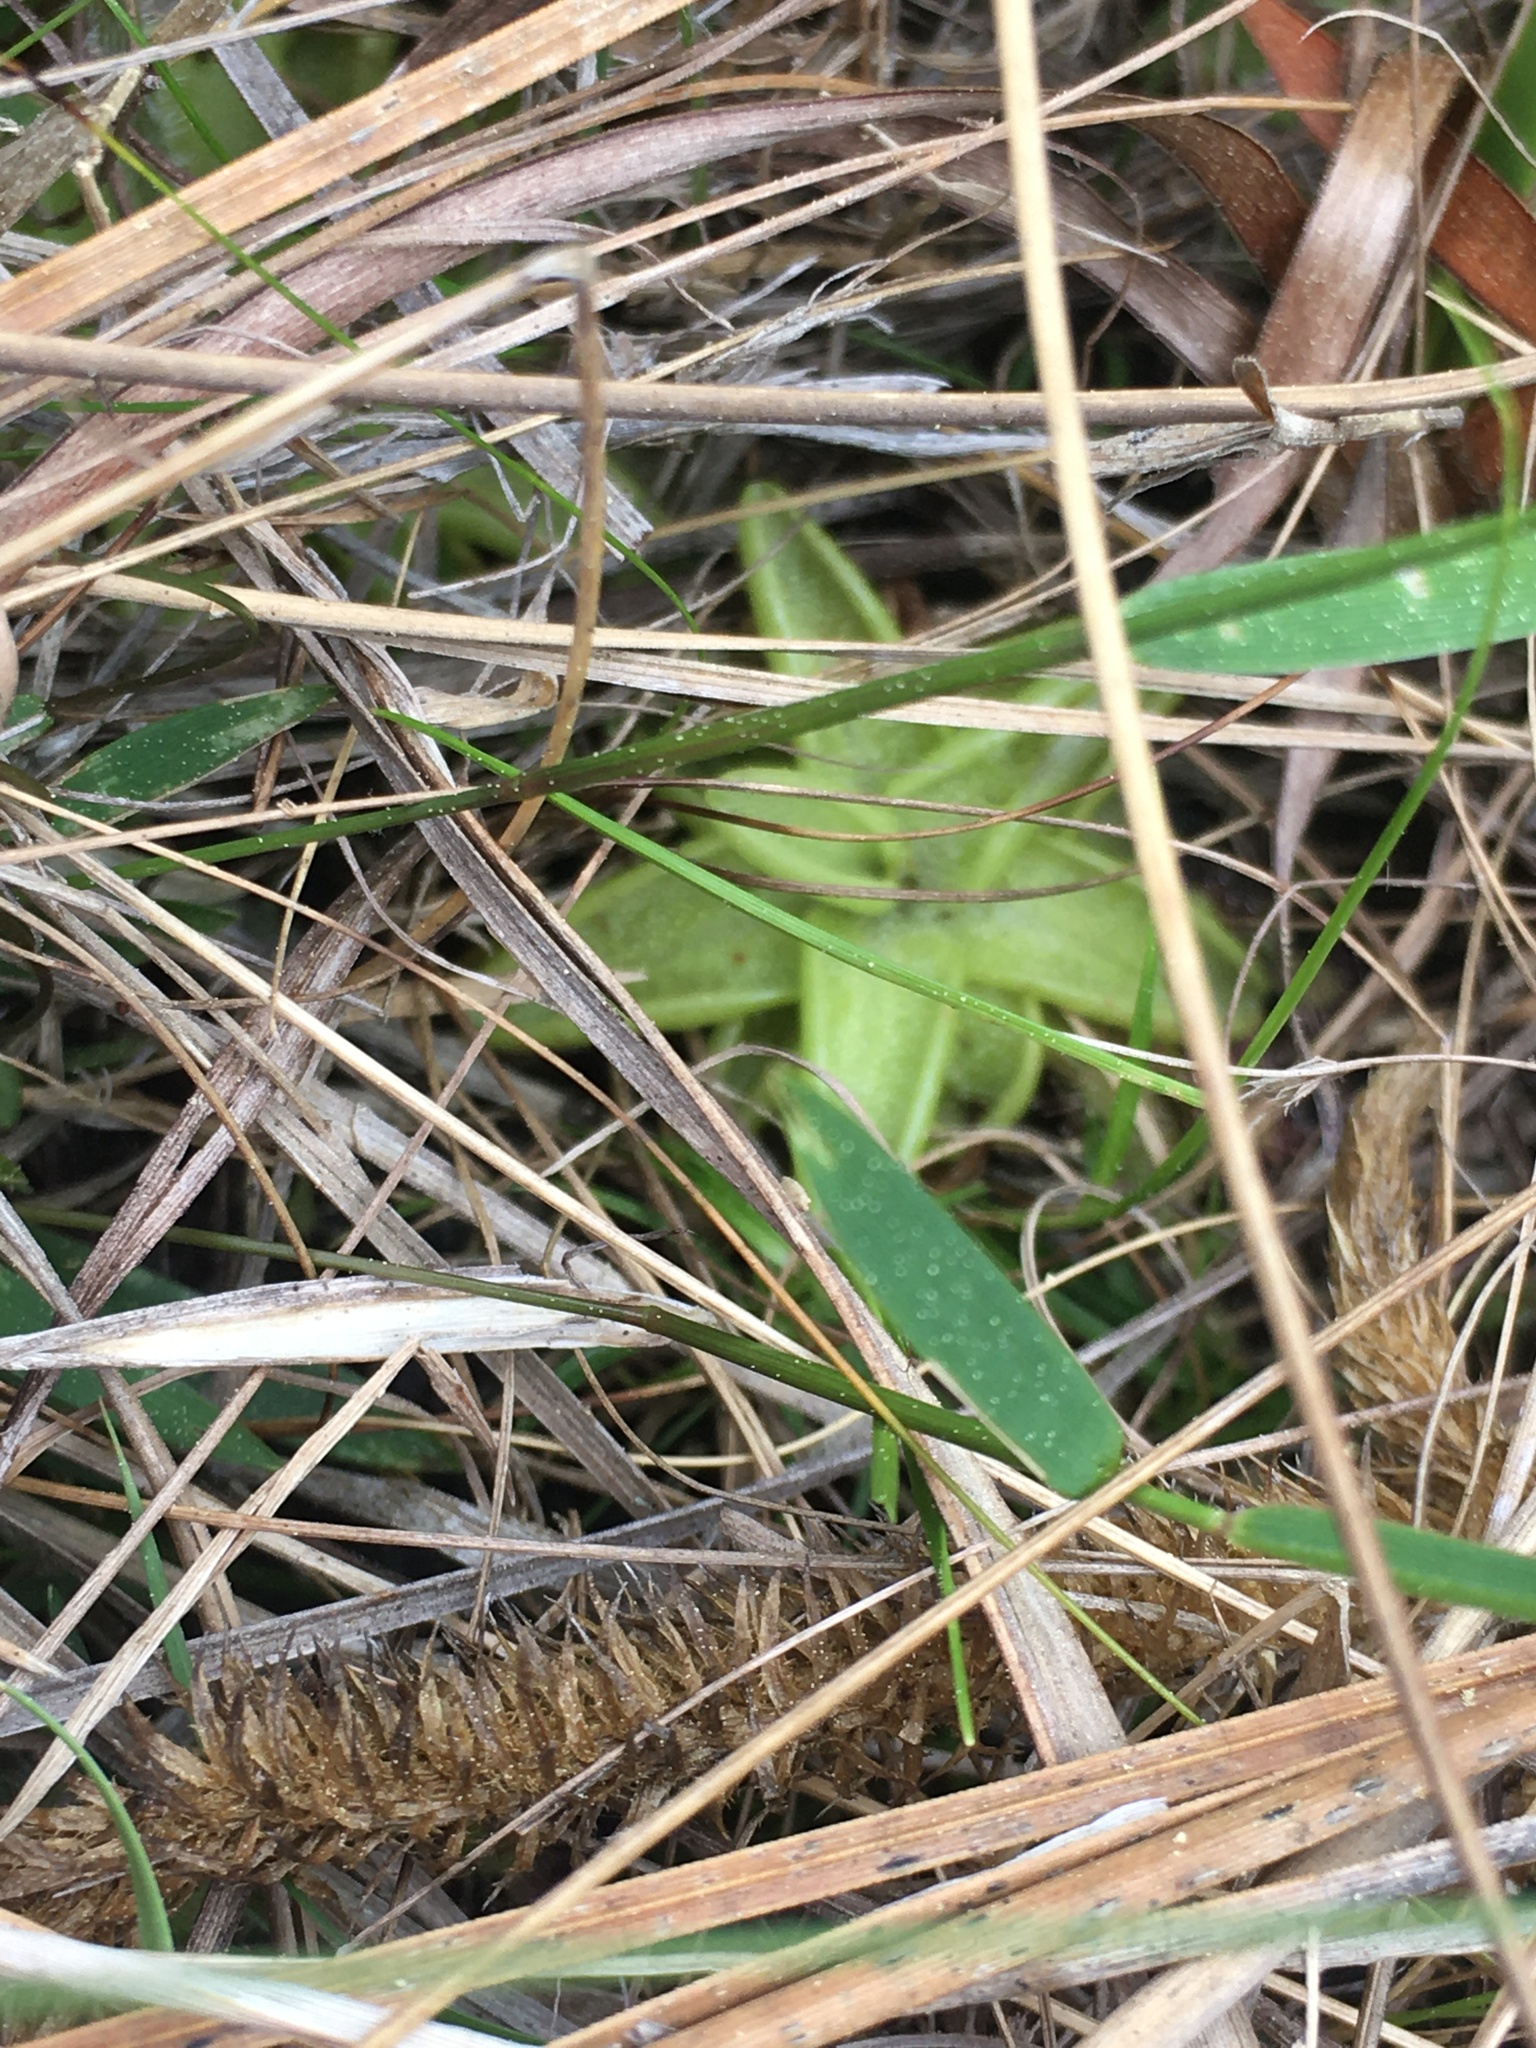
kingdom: Plantae
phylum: Tracheophyta
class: Magnoliopsida
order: Lamiales
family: Lentibulariaceae
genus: Pinguicula
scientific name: Pinguicula caerulea
